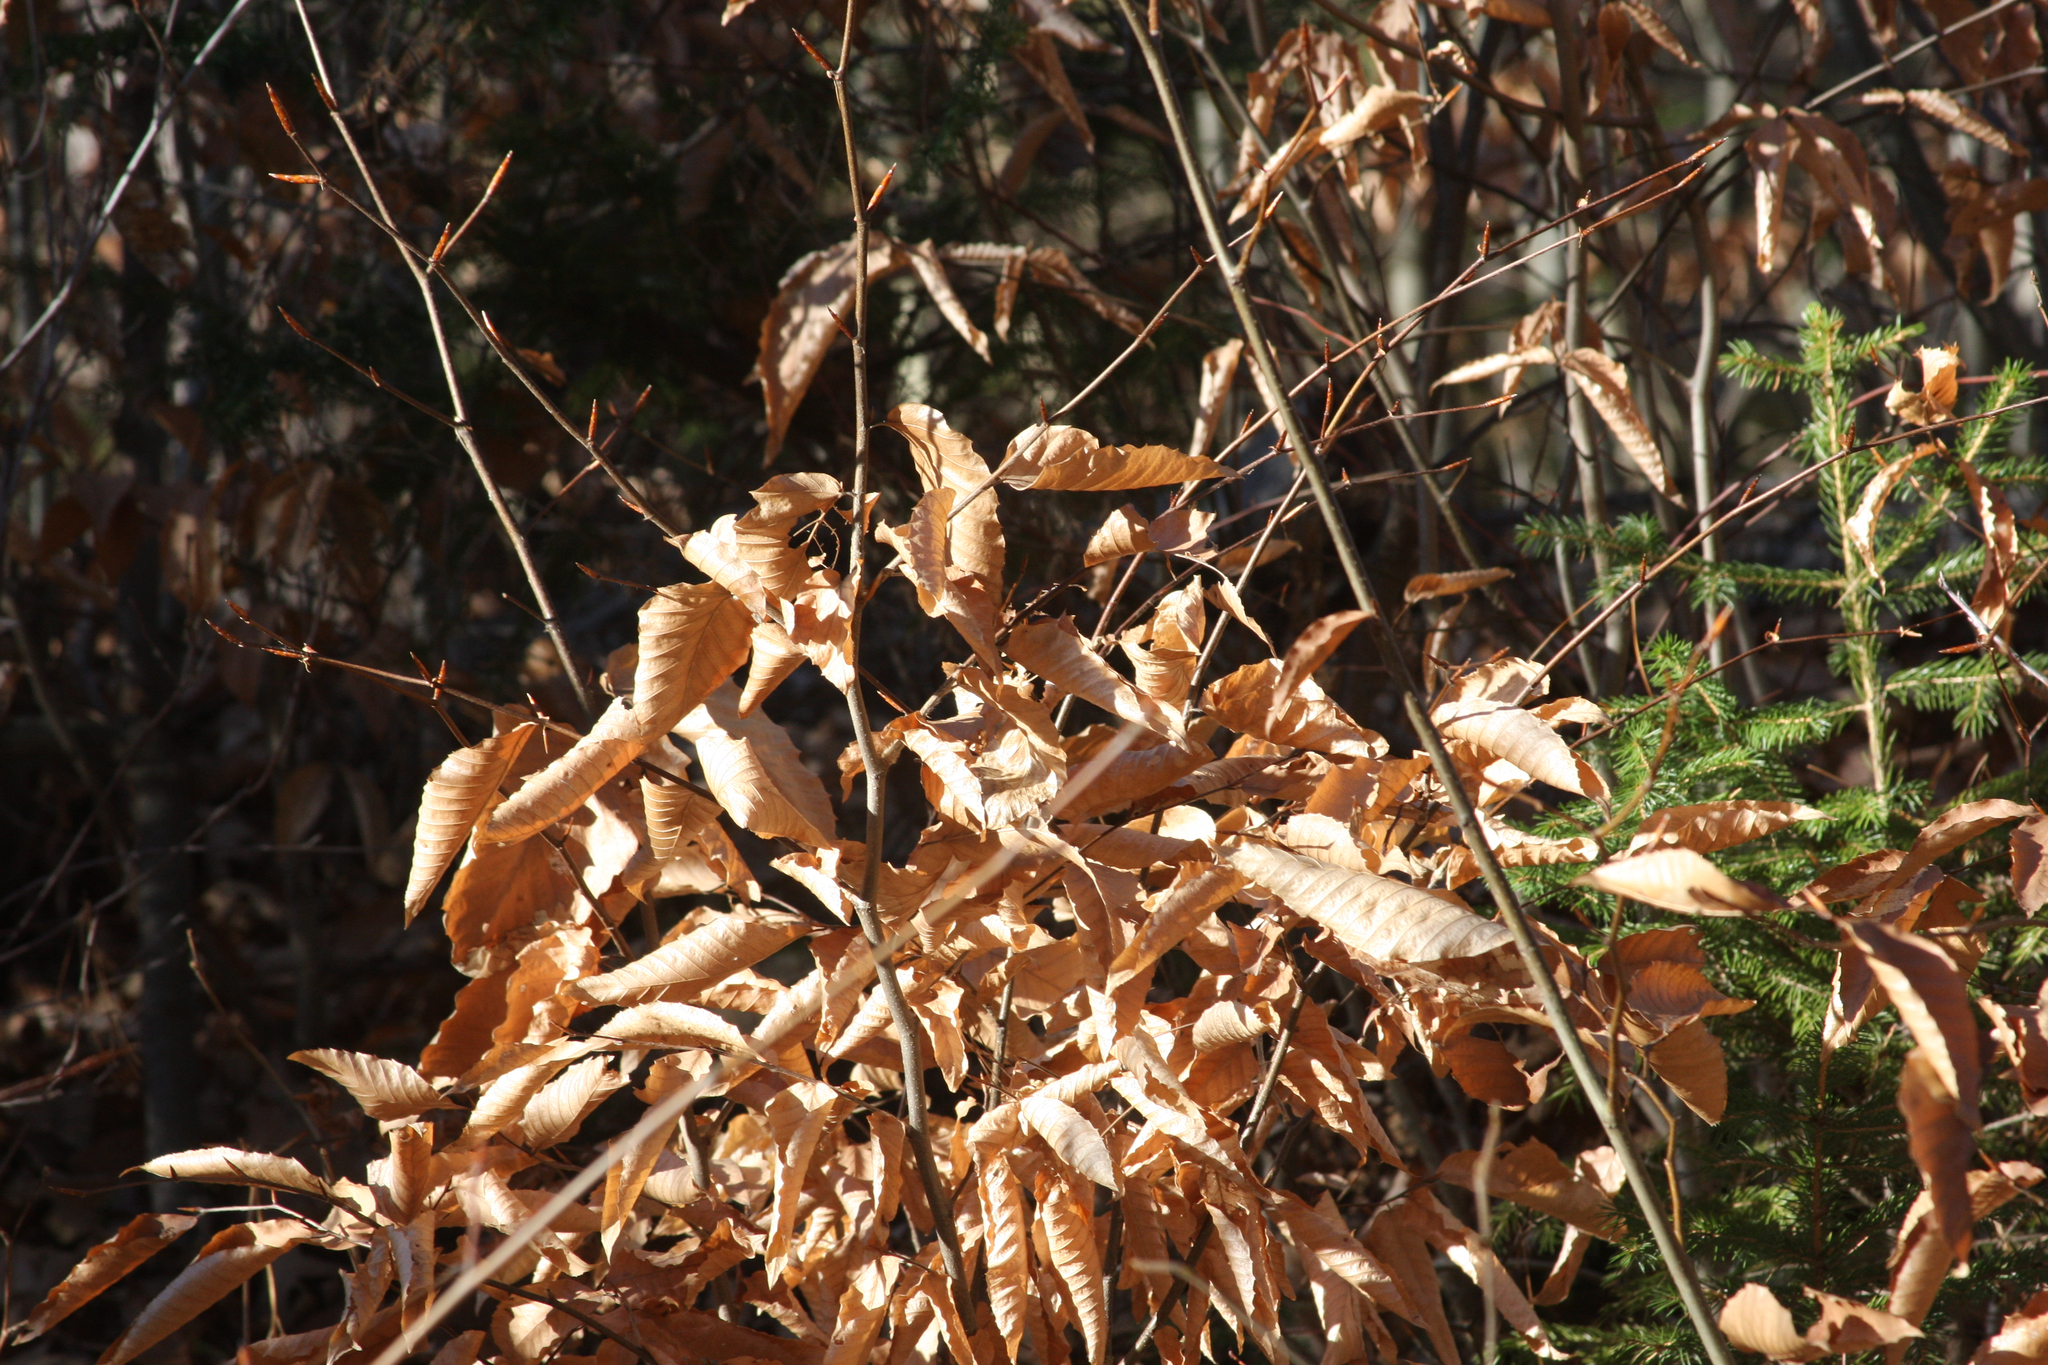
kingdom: Plantae
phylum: Tracheophyta
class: Magnoliopsida
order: Fagales
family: Fagaceae
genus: Fagus
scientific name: Fagus grandifolia
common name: American beech
